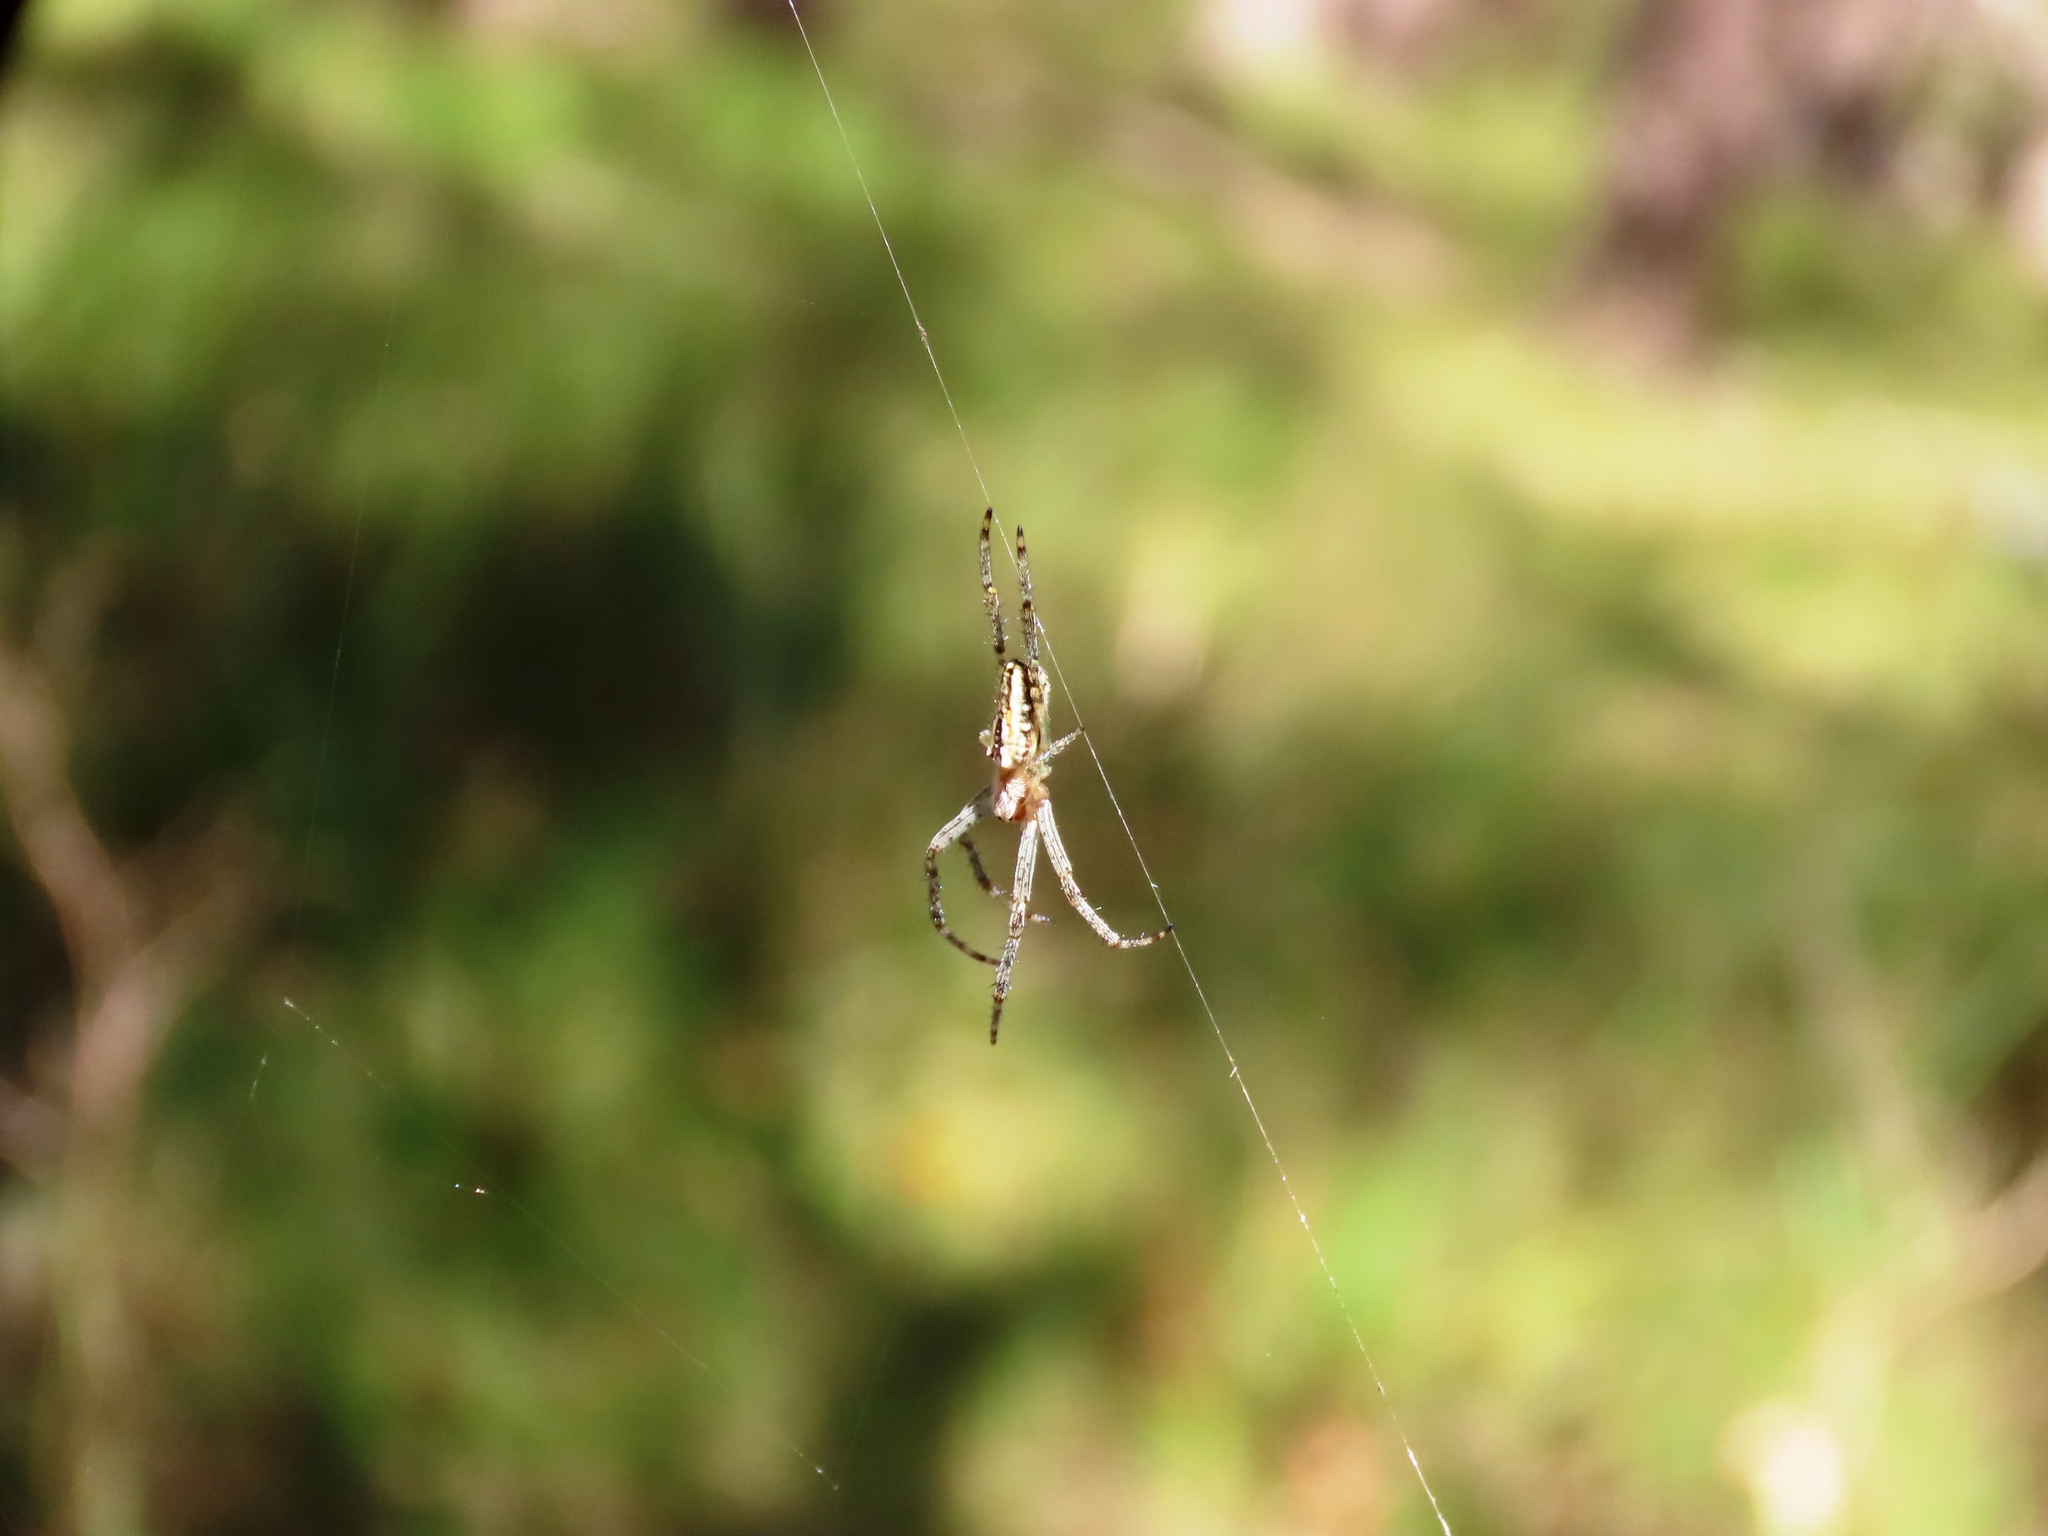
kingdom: Animalia
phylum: Arthropoda
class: Arachnida
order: Araneae
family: Araneidae
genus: Plebs
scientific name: Plebs bradleyi
